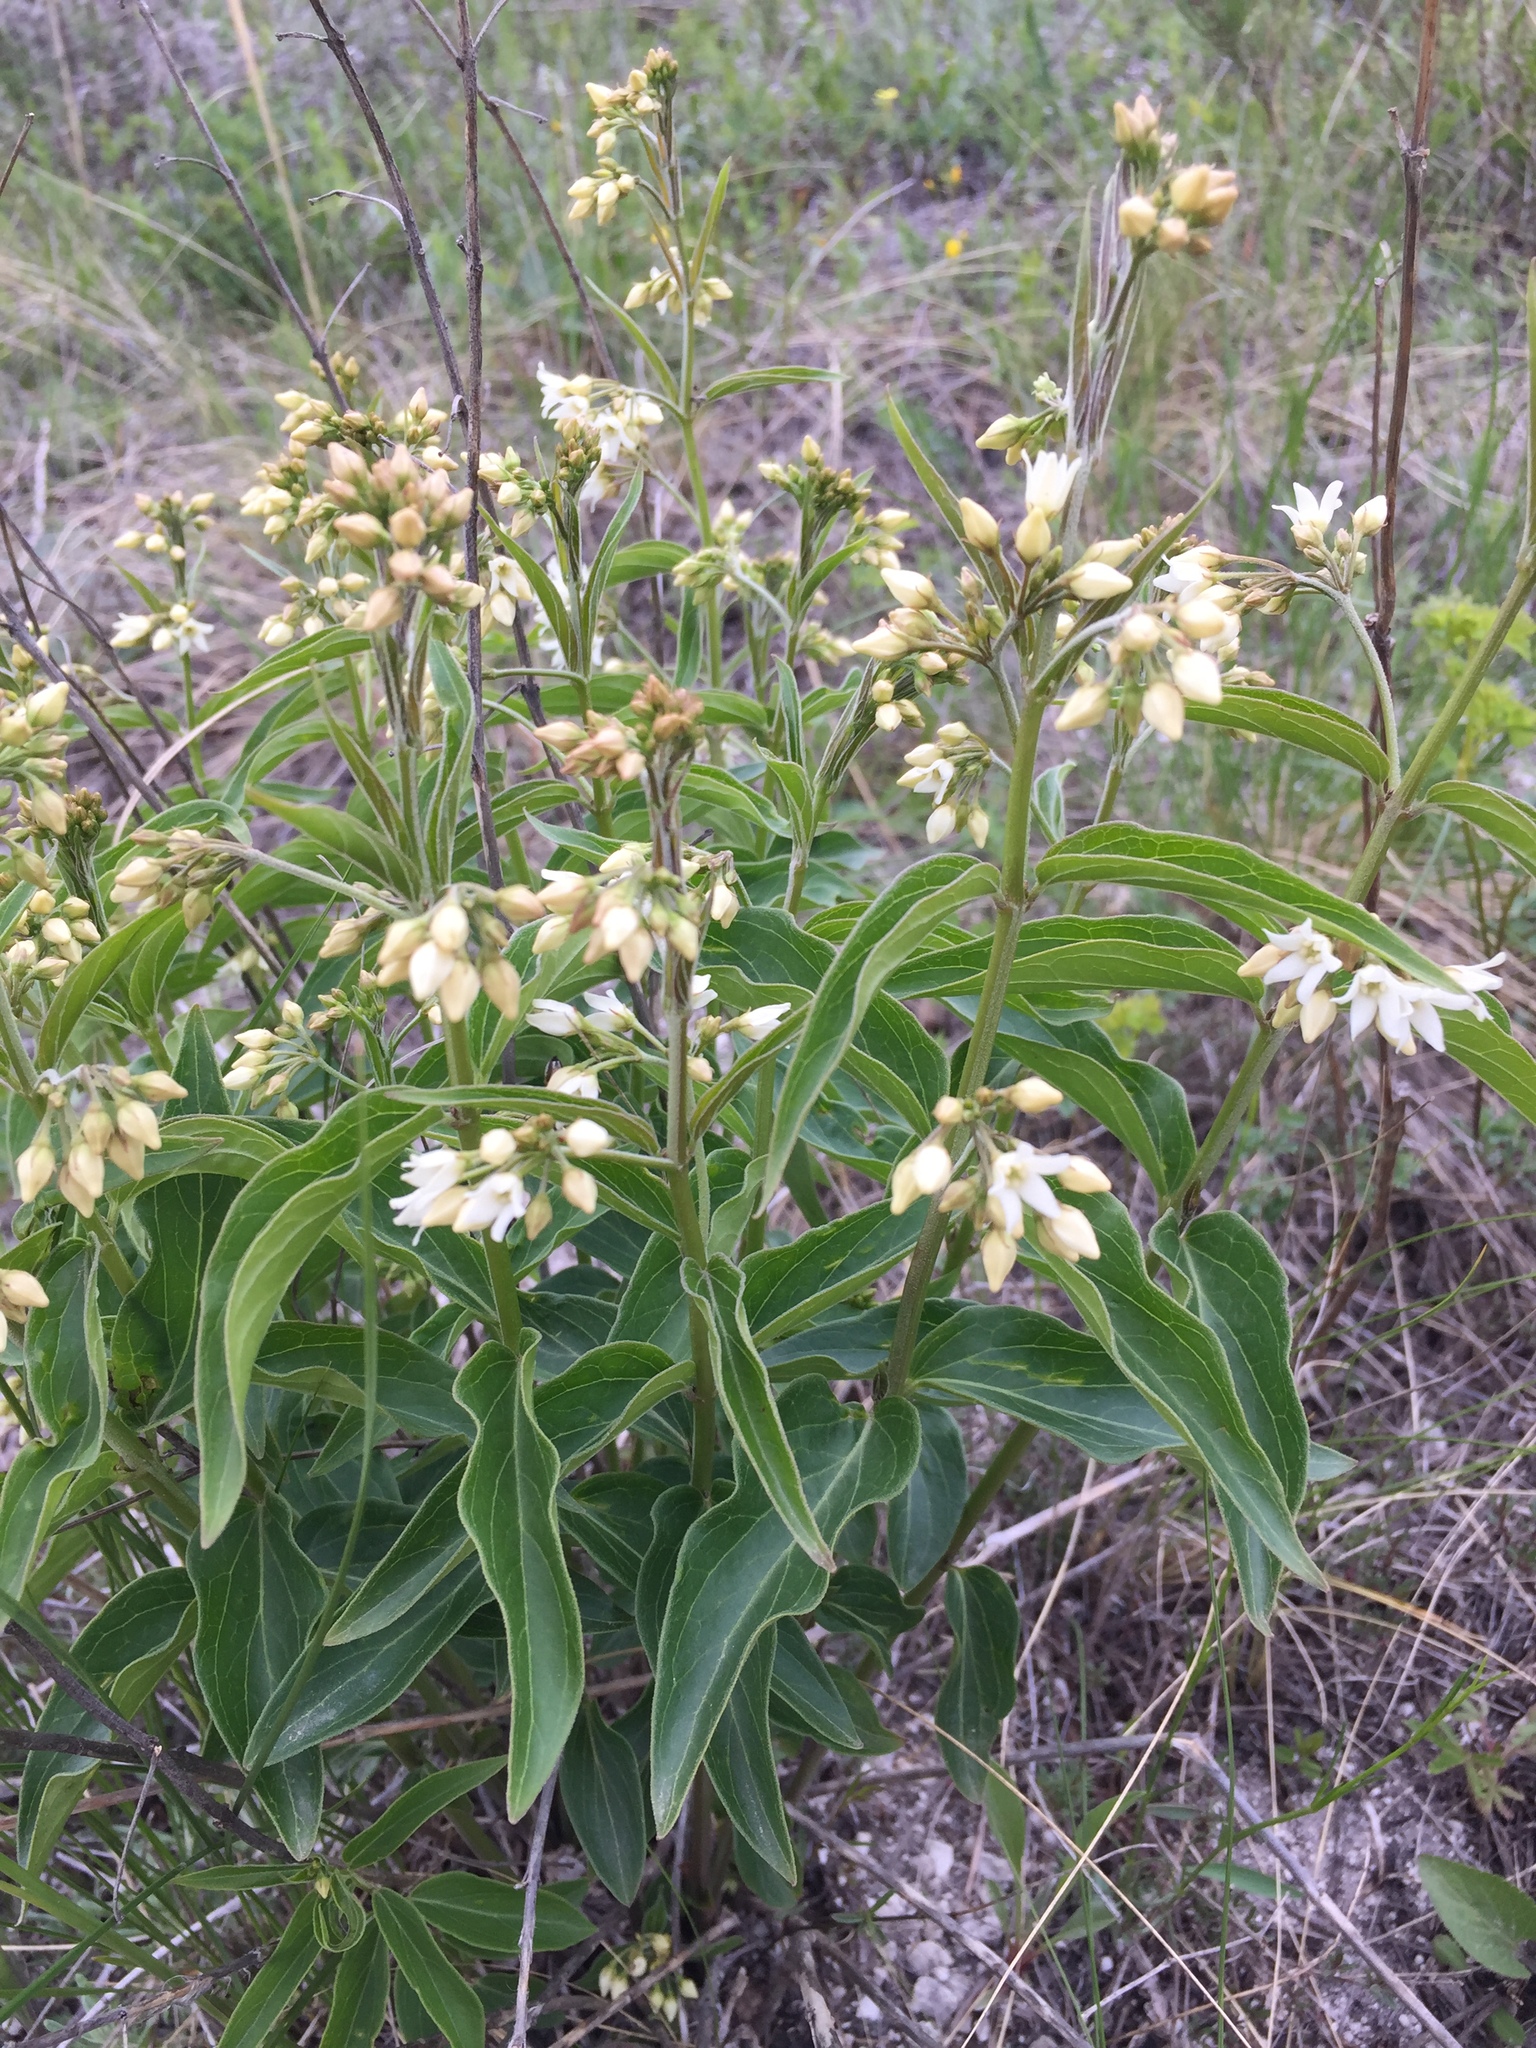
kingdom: Plantae
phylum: Tracheophyta
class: Magnoliopsida
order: Gentianales
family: Apocynaceae
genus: Vincetoxicum
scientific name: Vincetoxicum hirundinaria
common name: White swallowwort
